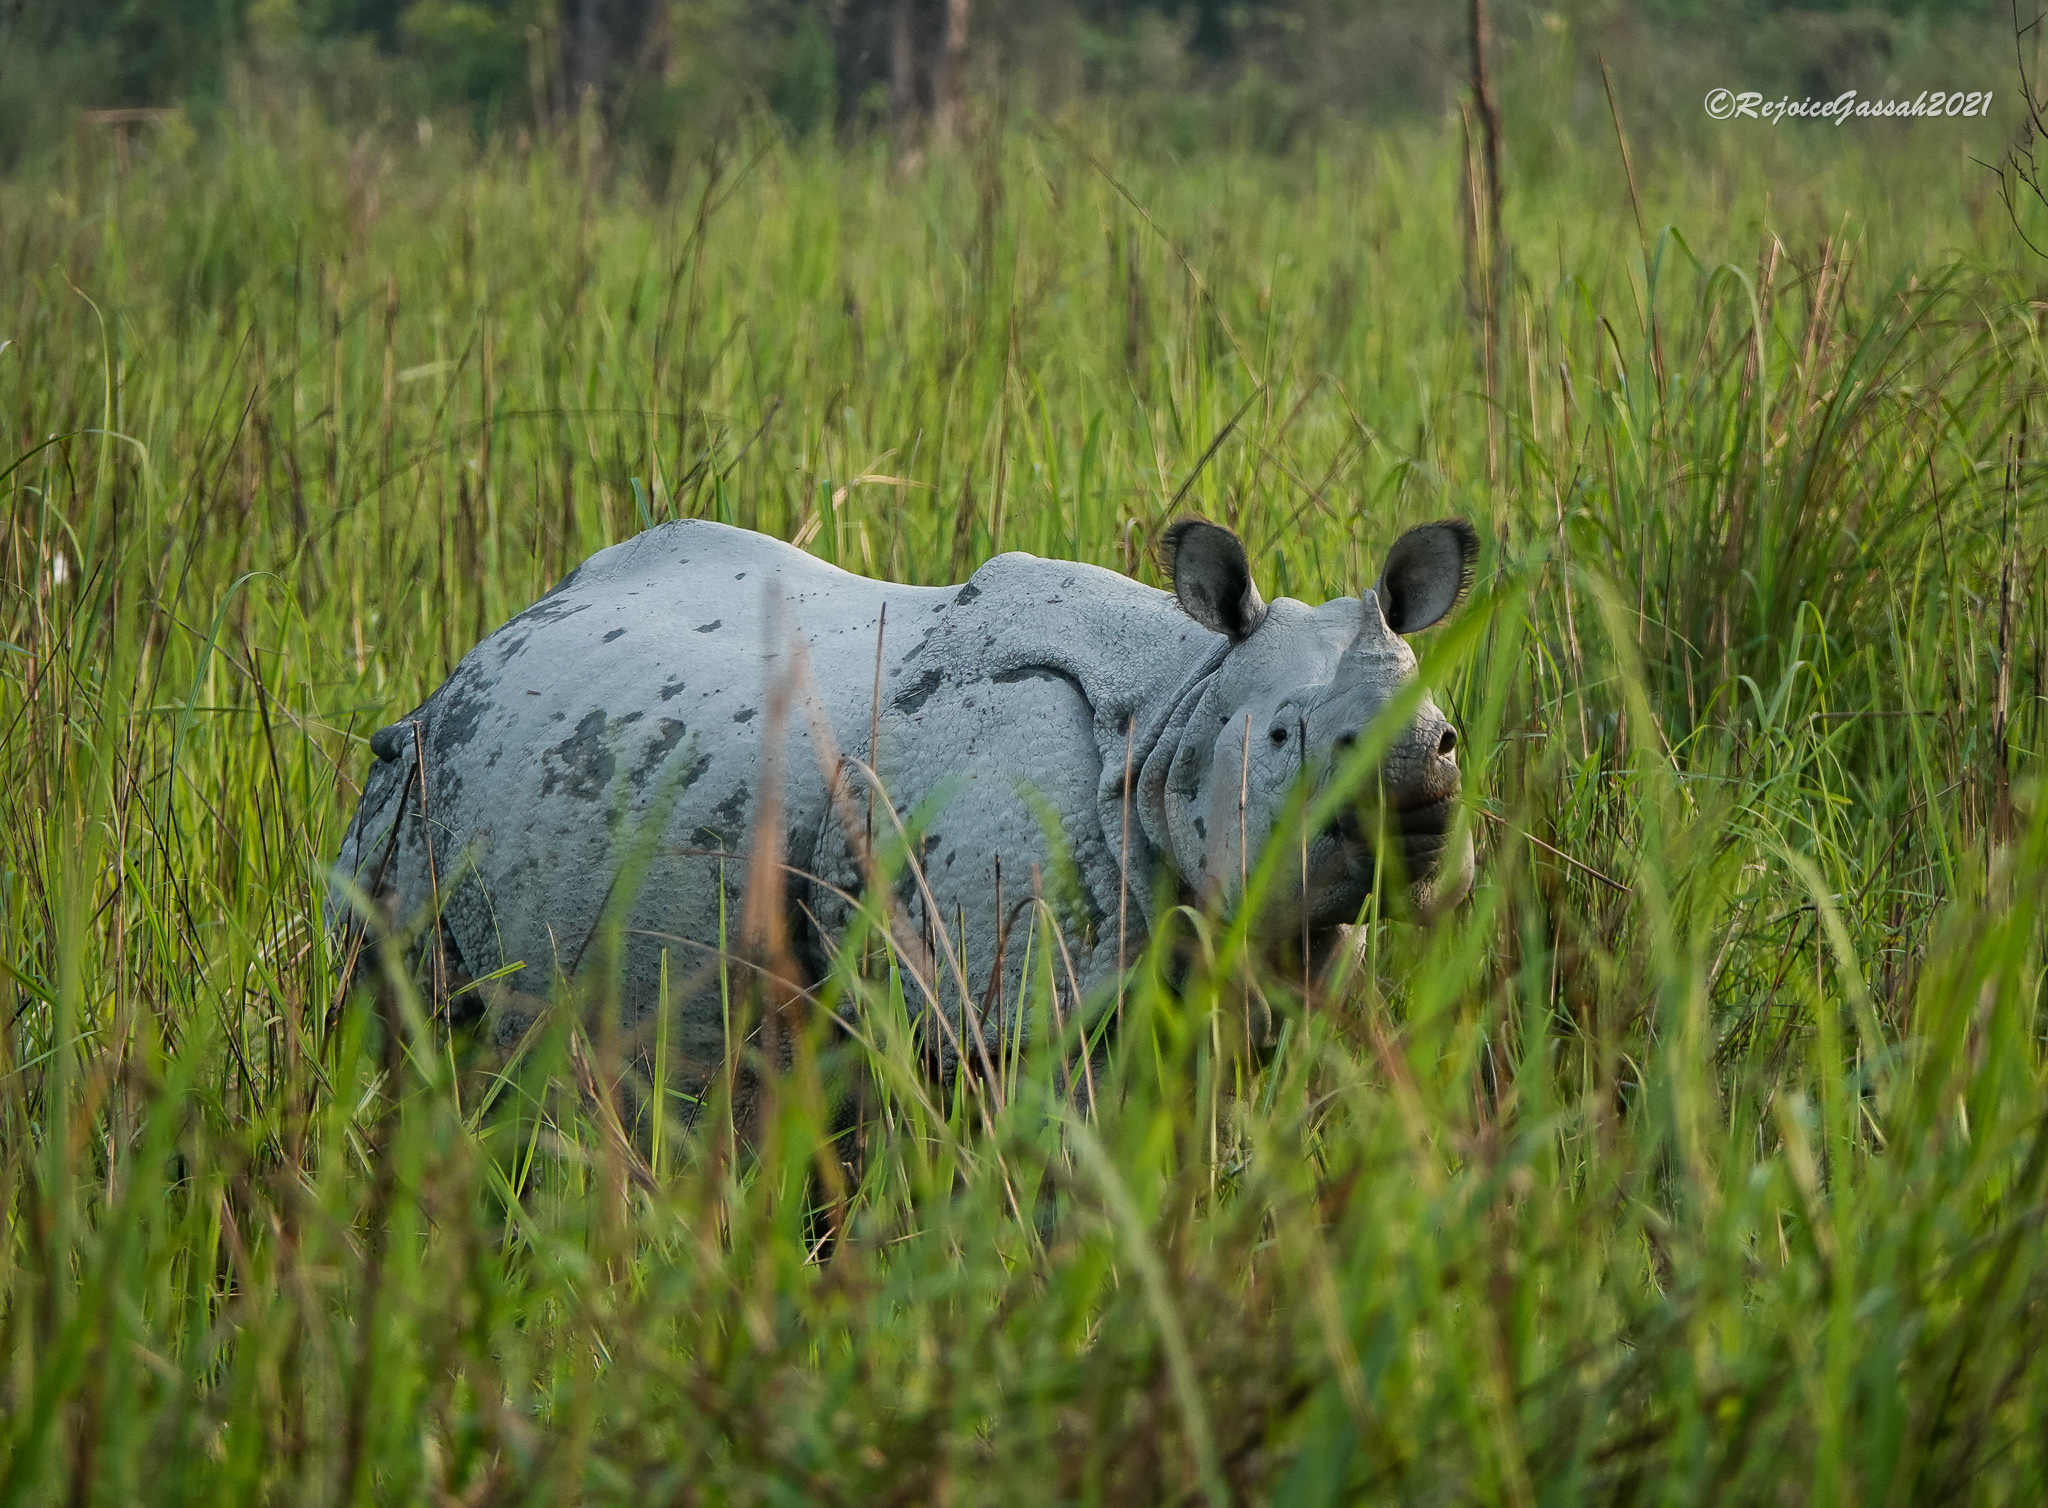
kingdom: Animalia
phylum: Chordata
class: Mammalia
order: Perissodactyla
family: Rhinocerotidae
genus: Rhinoceros
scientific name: Rhinoceros unicornis
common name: Indian rhinoceros
